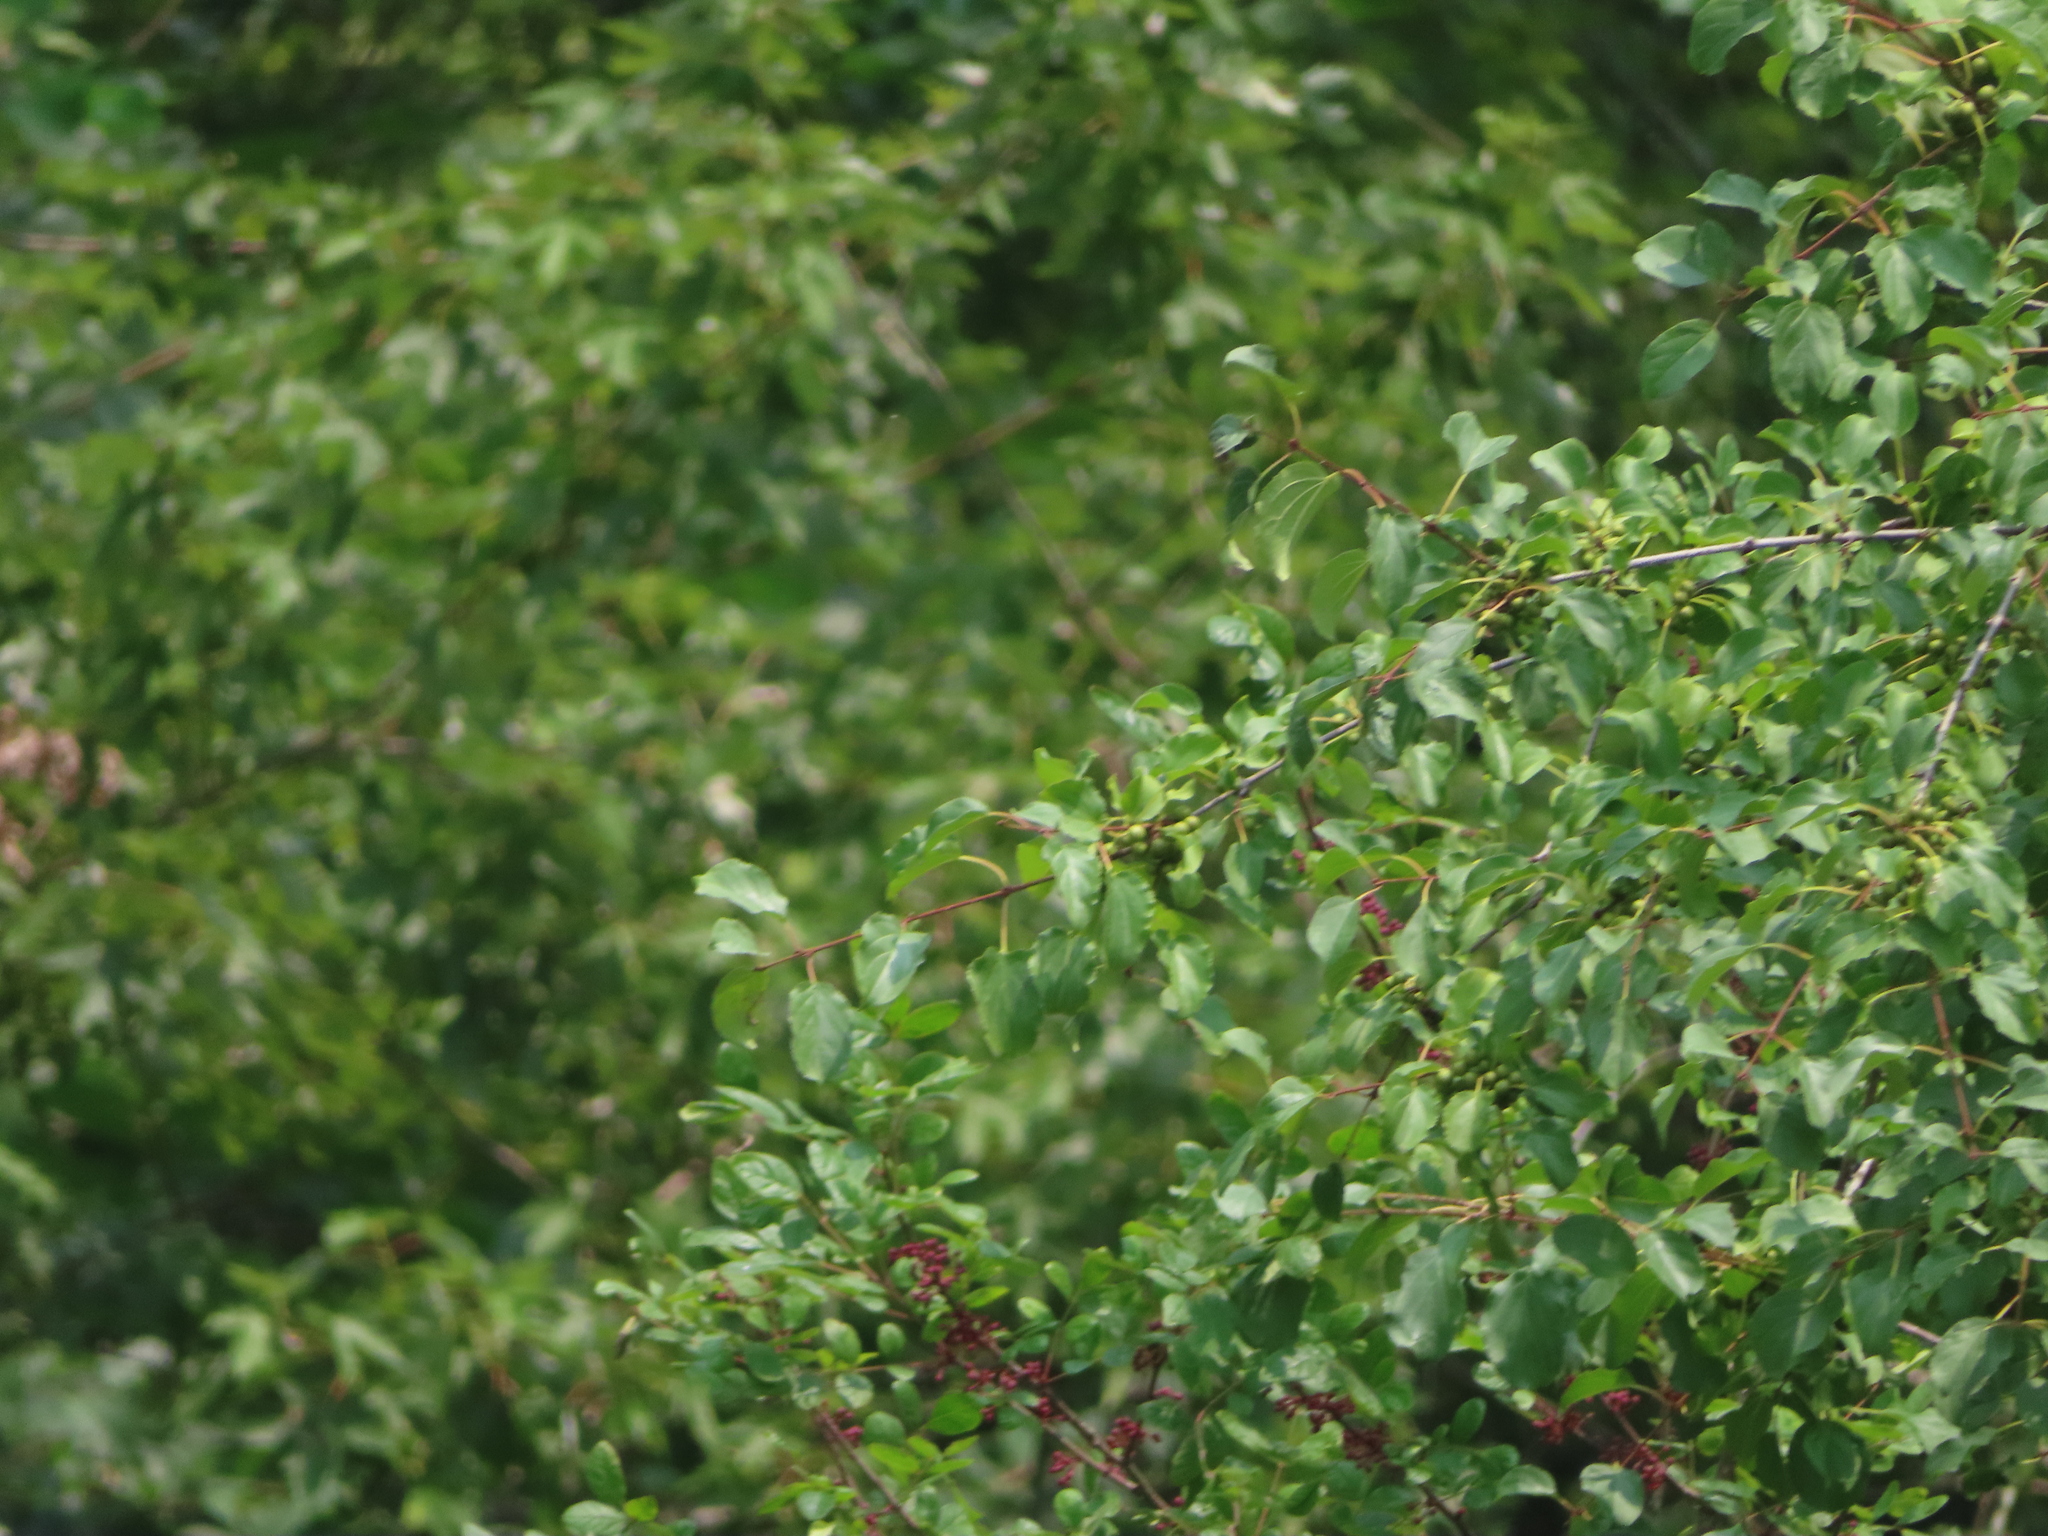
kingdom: Plantae
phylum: Tracheophyta
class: Magnoliopsida
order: Rosales
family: Rhamnaceae
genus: Rhamnus
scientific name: Rhamnus cathartica
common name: Common buckthorn
